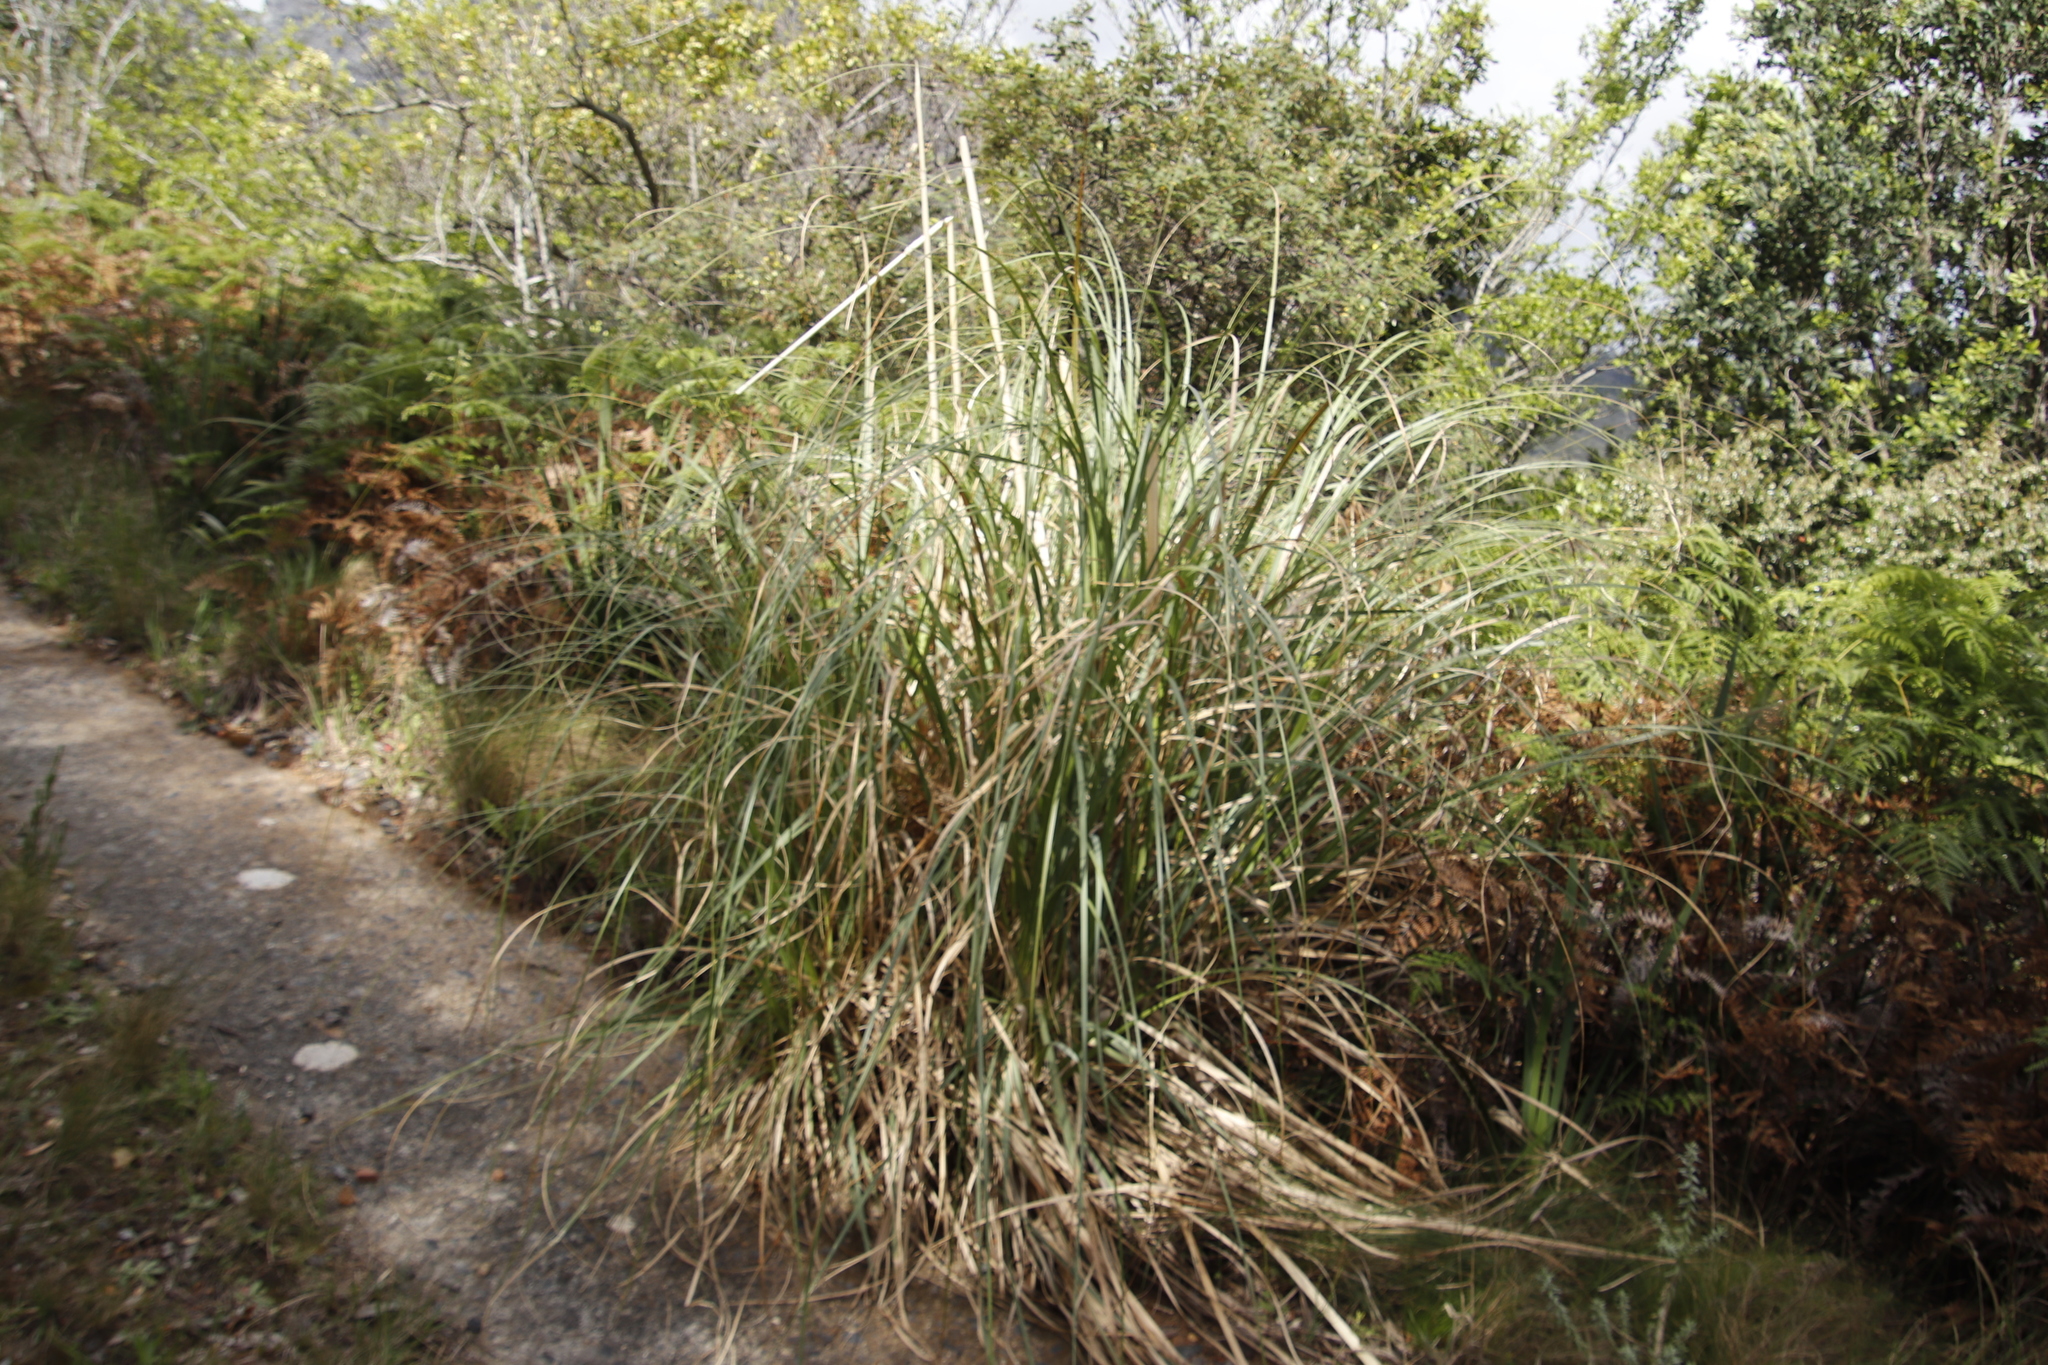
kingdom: Plantae
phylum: Tracheophyta
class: Liliopsida
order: Poales
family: Poaceae
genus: Cortaderia
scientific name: Cortaderia selloana
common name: Uruguayan pampas grass
